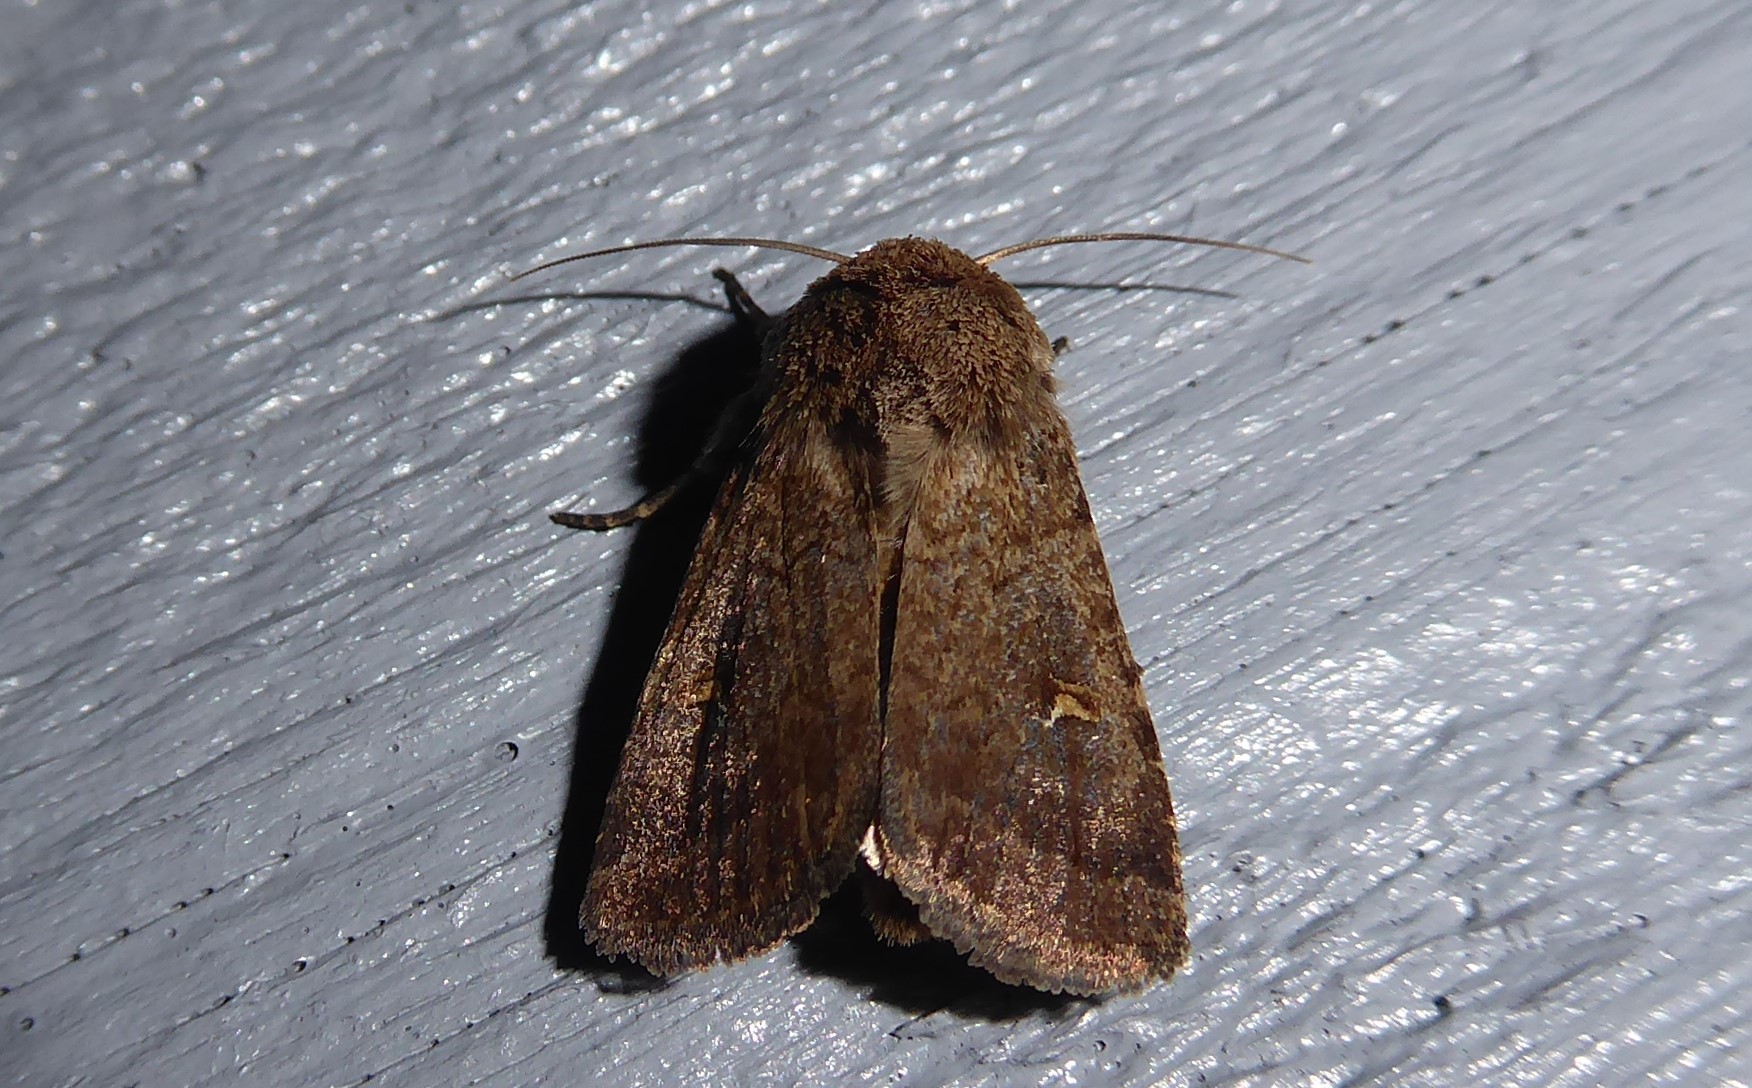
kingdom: Animalia
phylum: Arthropoda
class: Insecta
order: Lepidoptera
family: Noctuidae
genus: Proteuxoa
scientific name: Proteuxoa tetronycha
